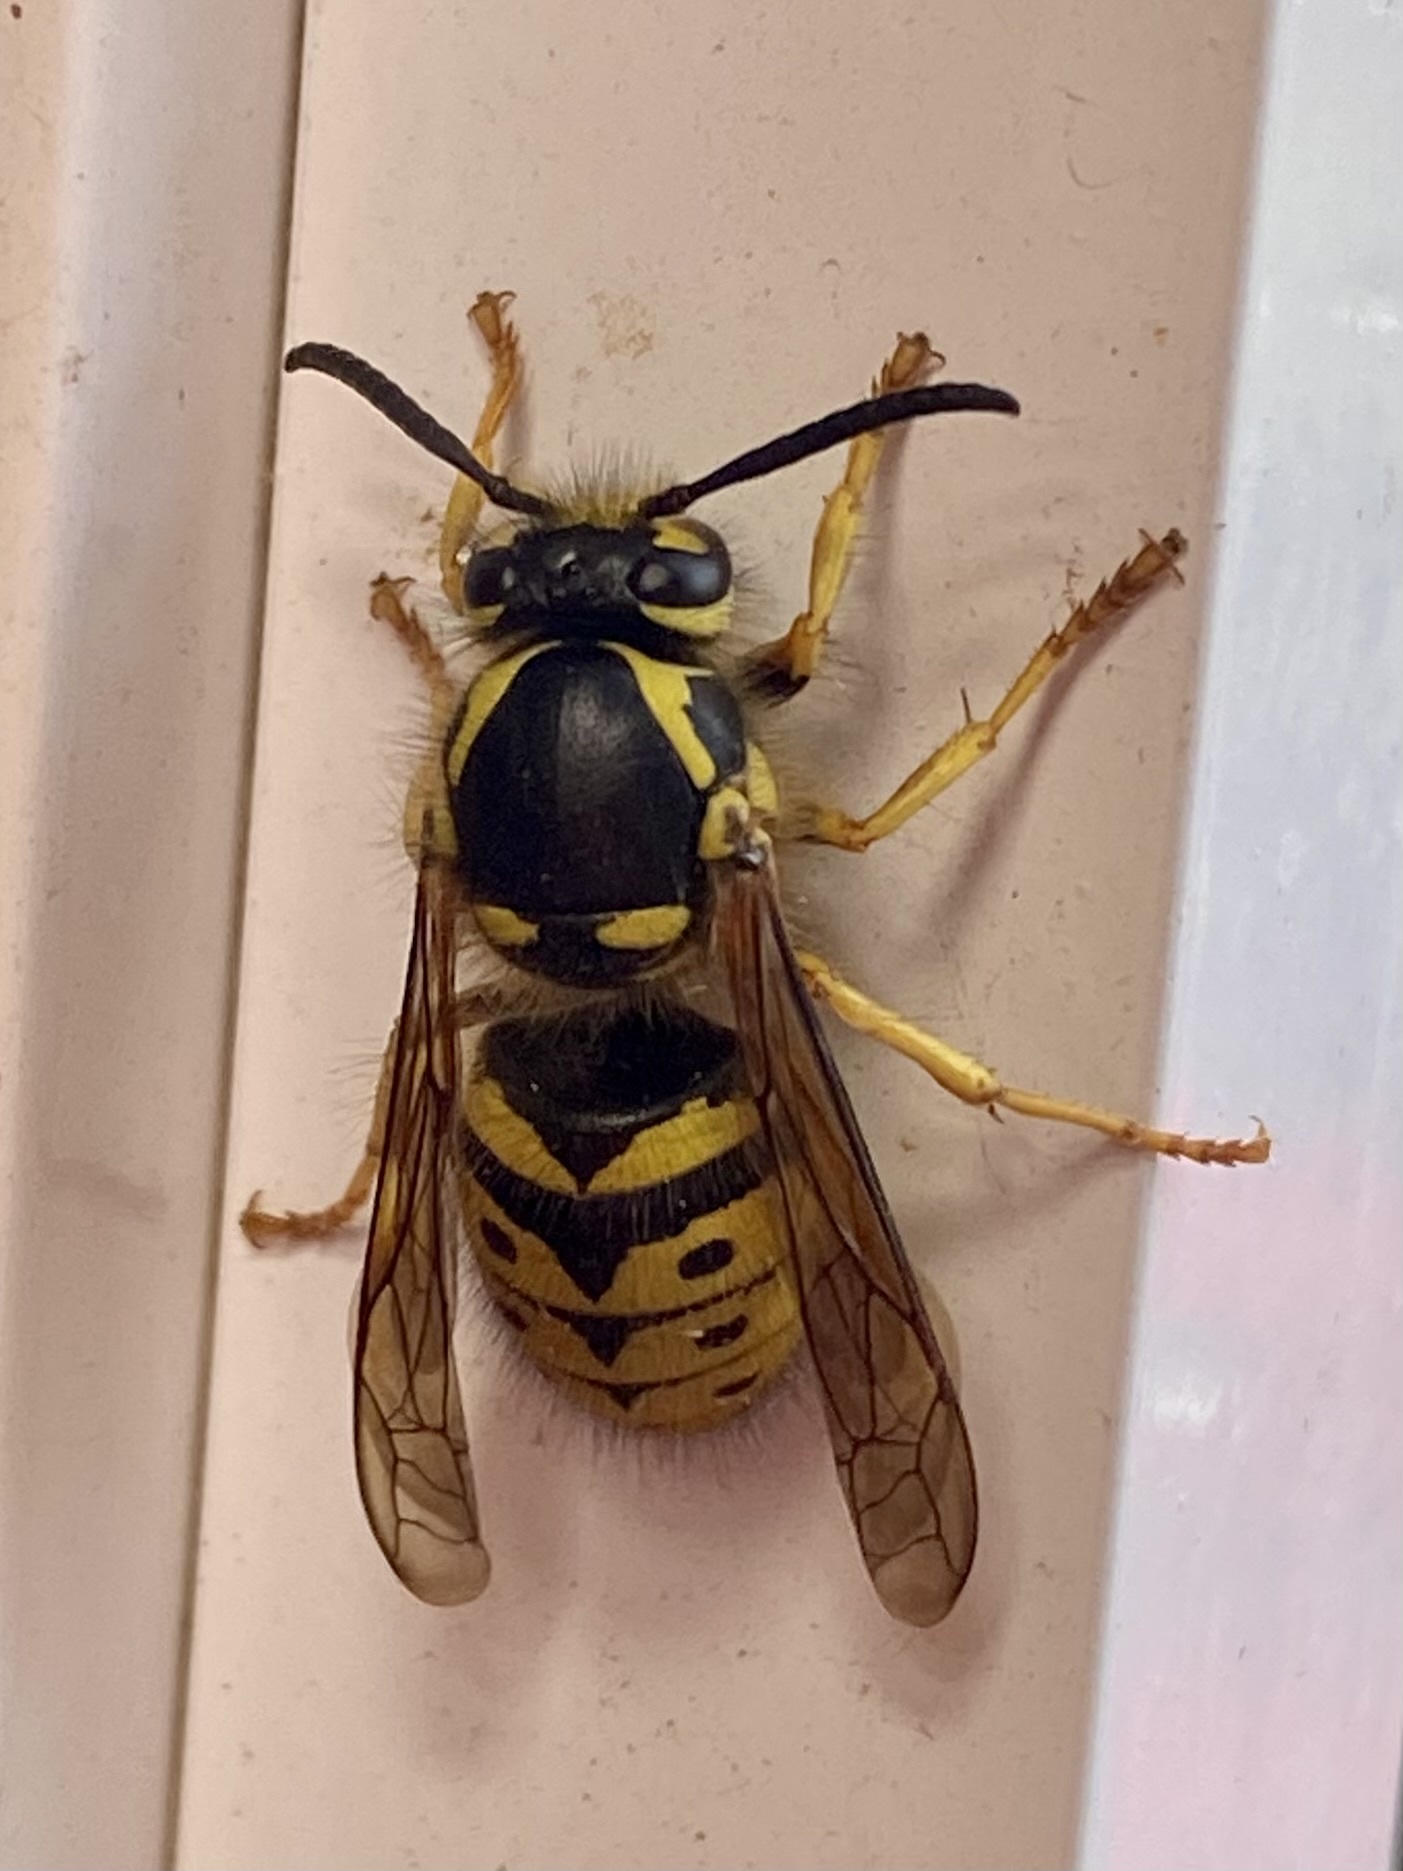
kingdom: Animalia
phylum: Arthropoda
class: Insecta
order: Hymenoptera
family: Vespidae
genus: Dolichovespula
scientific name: Dolichovespula arenaria
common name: Aerial yellowjacket
